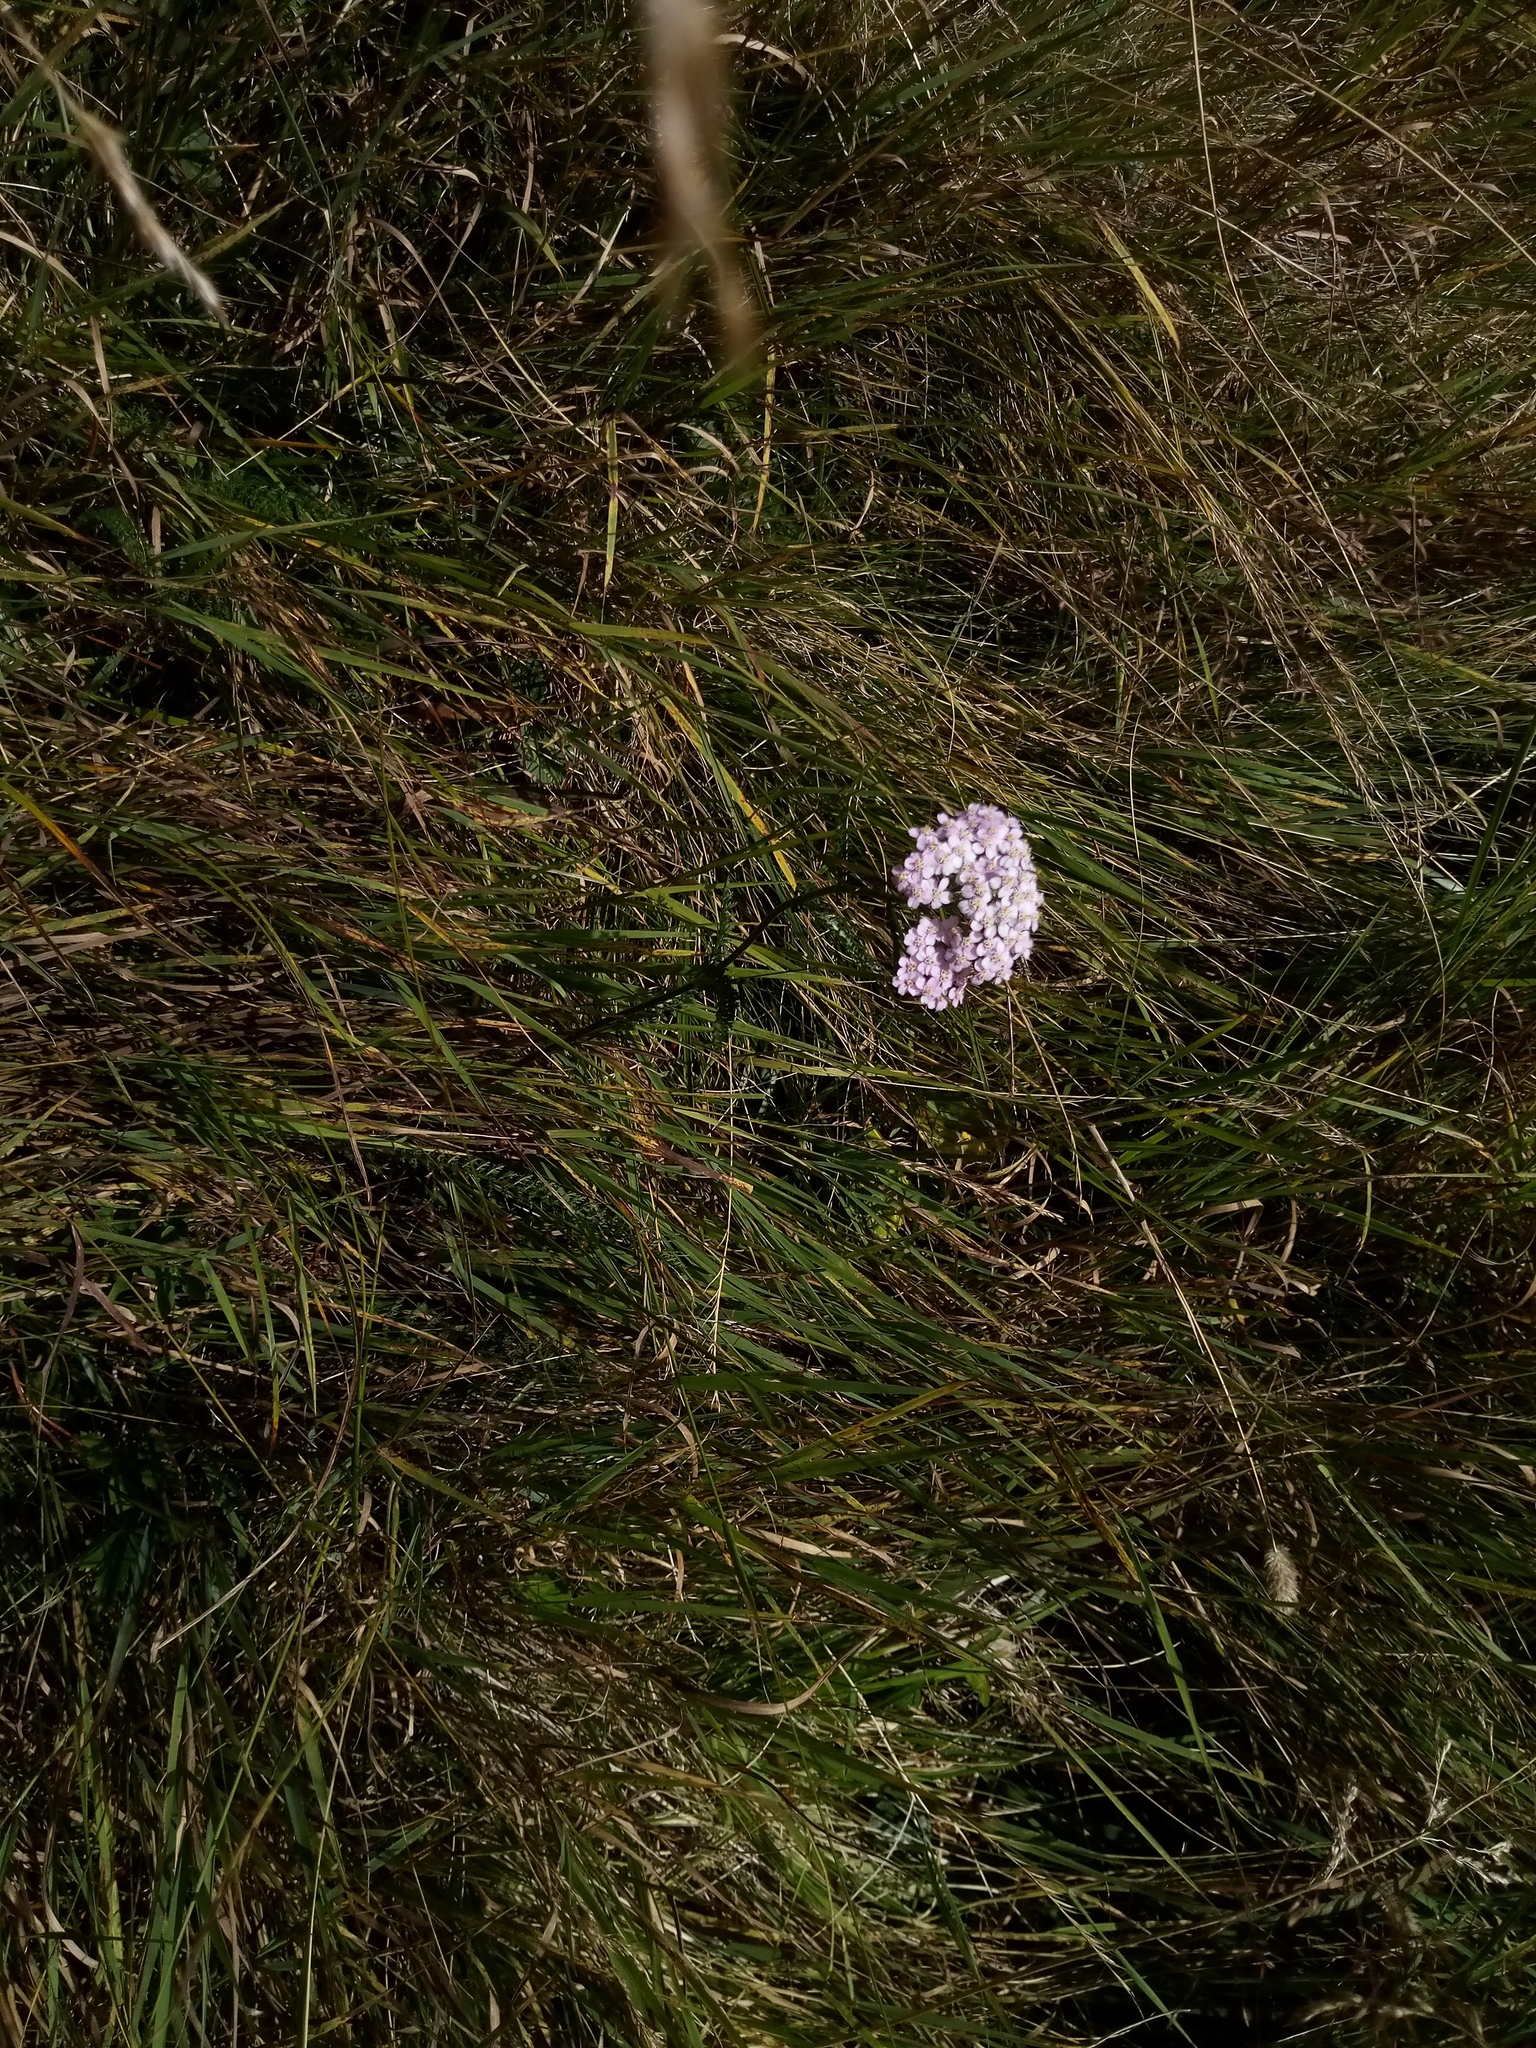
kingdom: Plantae
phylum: Tracheophyta
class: Magnoliopsida
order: Asterales
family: Asteraceae
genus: Achillea
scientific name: Achillea
